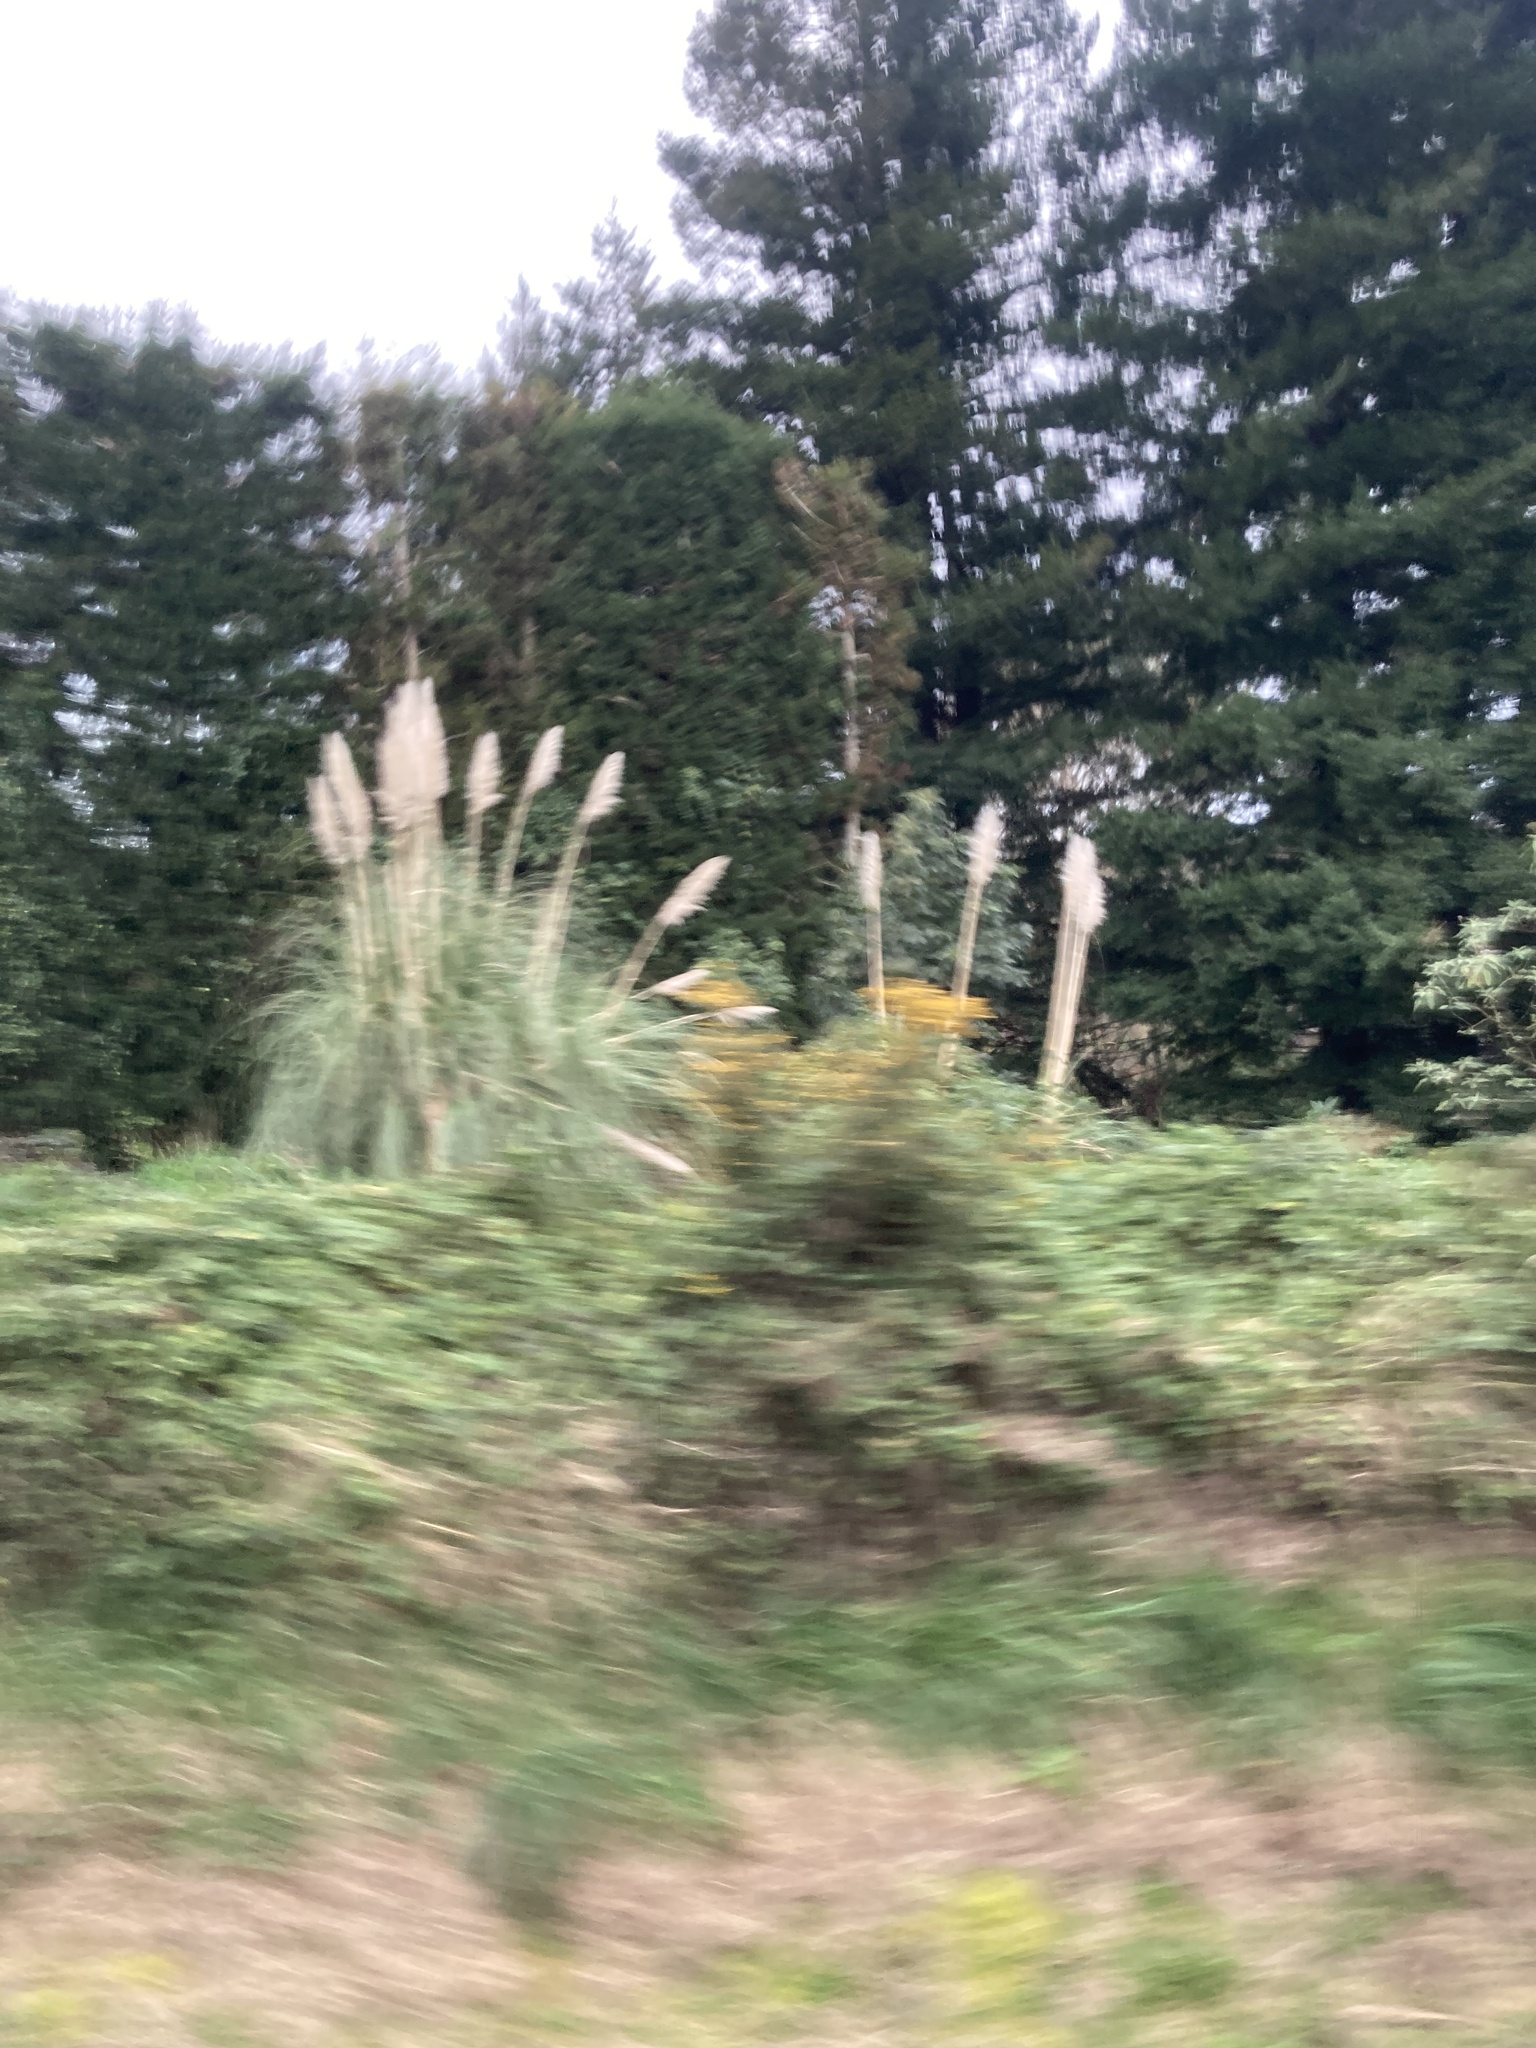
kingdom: Plantae
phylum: Tracheophyta
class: Liliopsida
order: Poales
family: Poaceae
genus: Cortaderia
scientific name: Cortaderia selloana
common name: Uruguayan pampas grass
